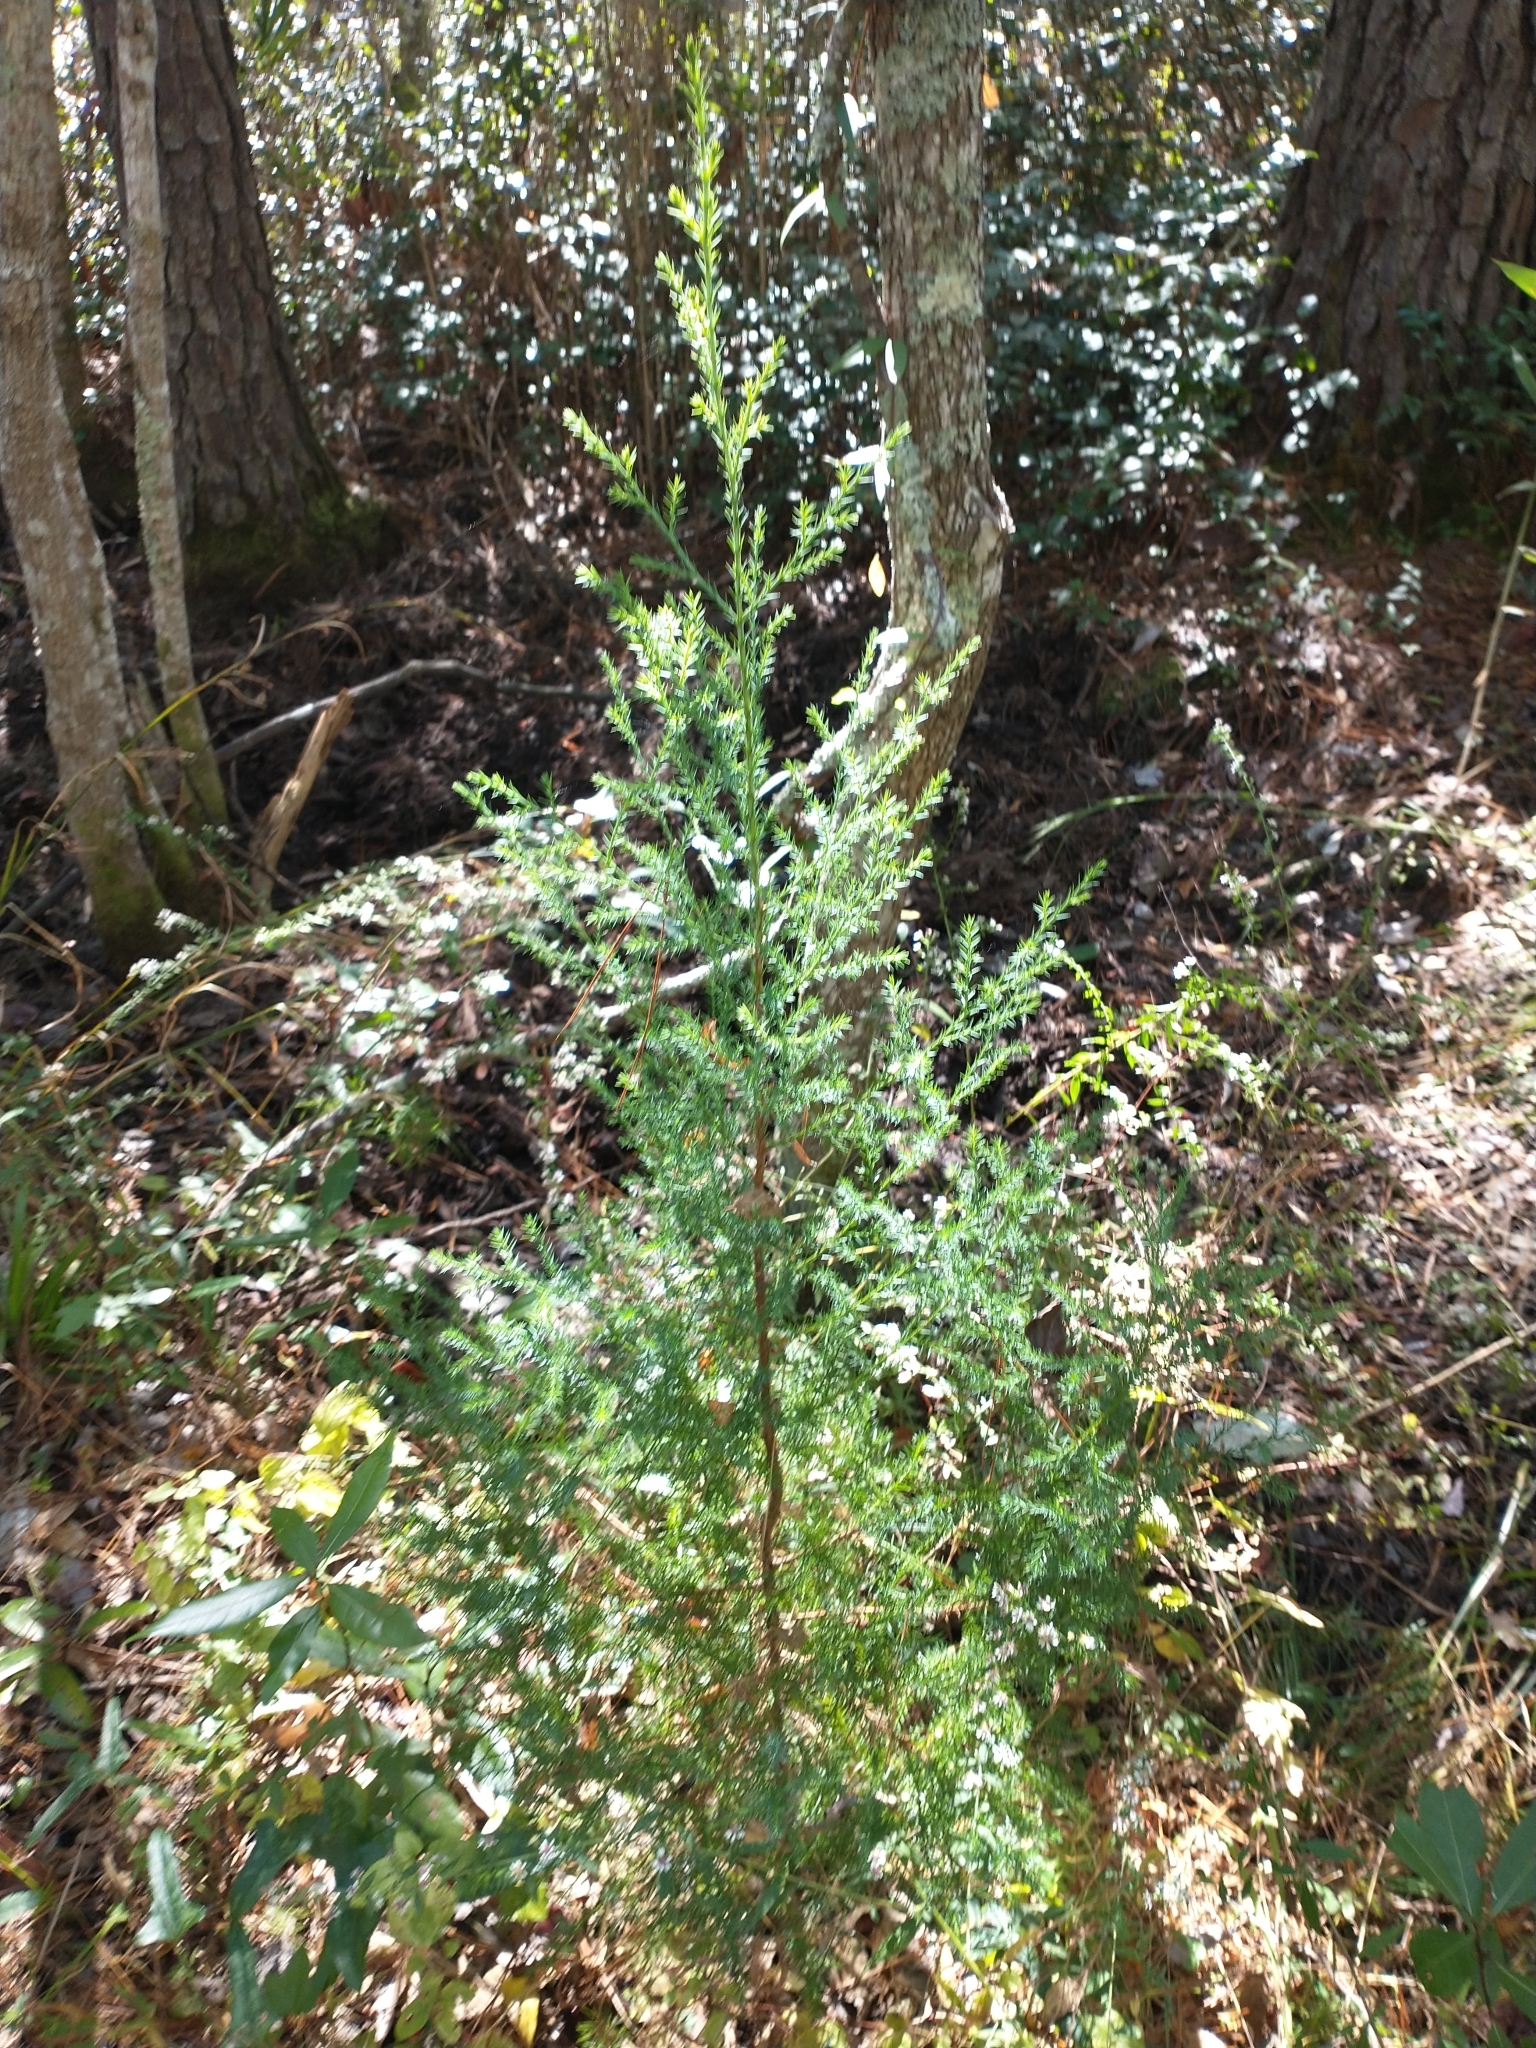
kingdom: Plantae
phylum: Tracheophyta
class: Pinopsida
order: Pinales
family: Cupressaceae
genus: Juniperus
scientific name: Juniperus virginiana
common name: Red juniper
